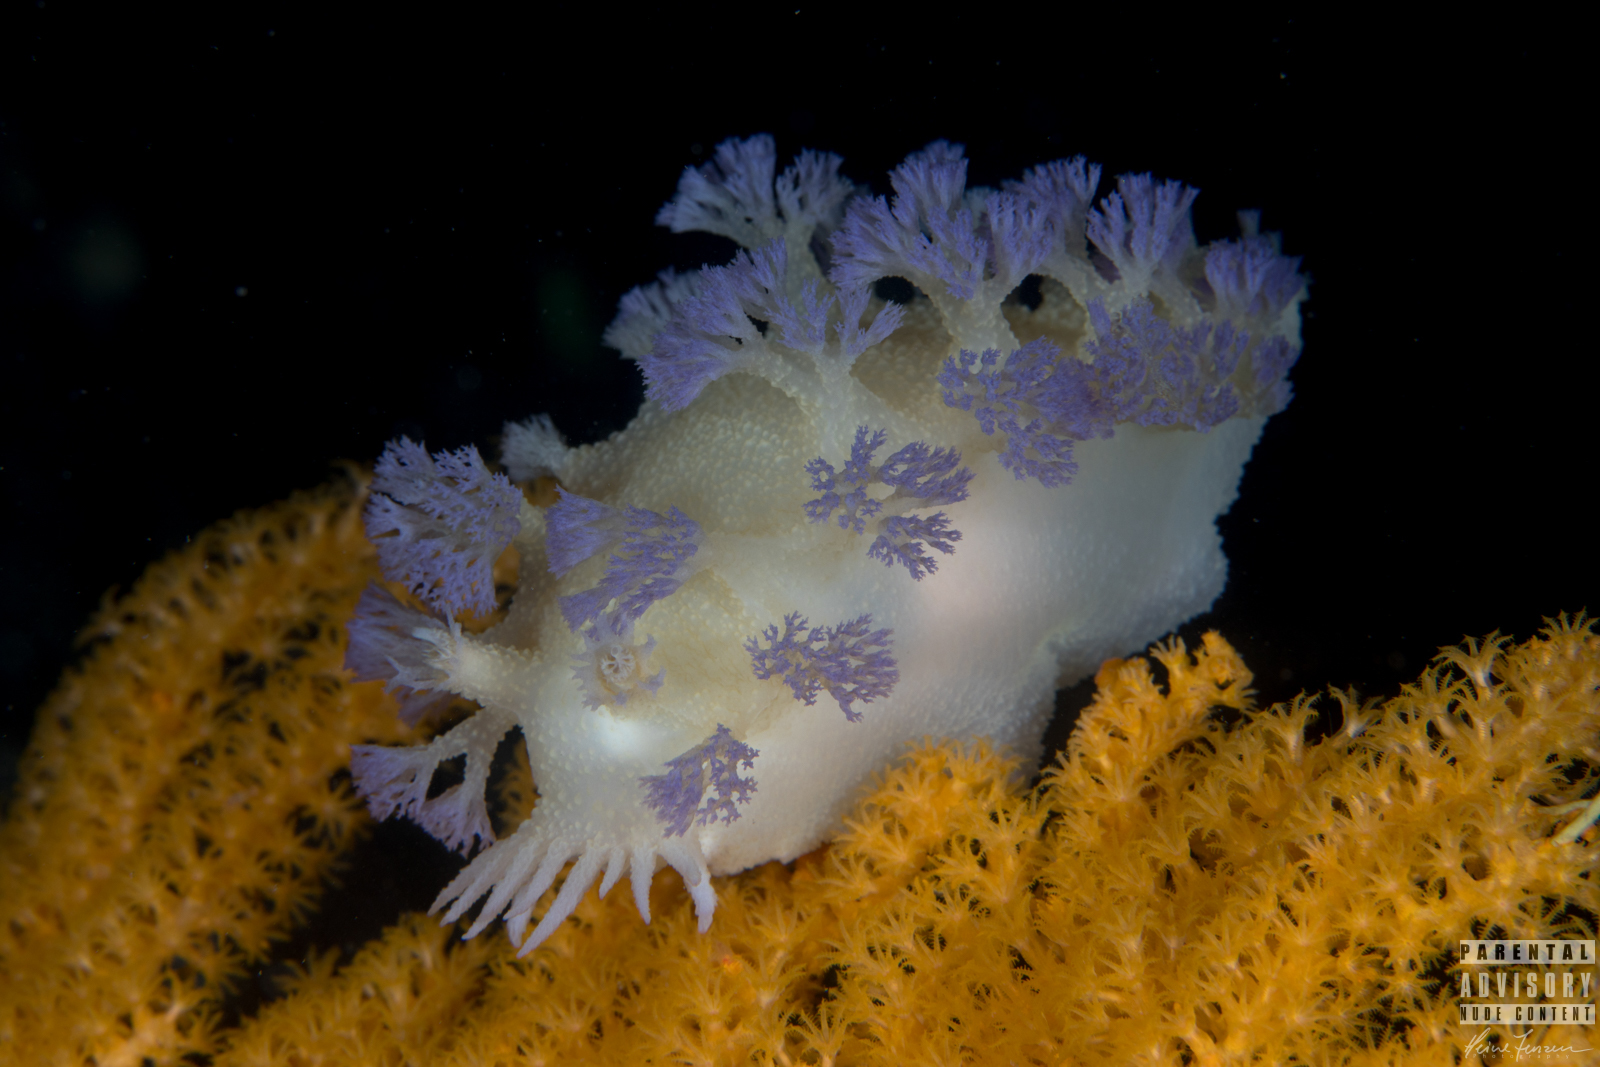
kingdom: Animalia
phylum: Mollusca
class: Gastropoda
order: Nudibranchia
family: Tritoniidae
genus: Tritonia
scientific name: Tritonia griegi
